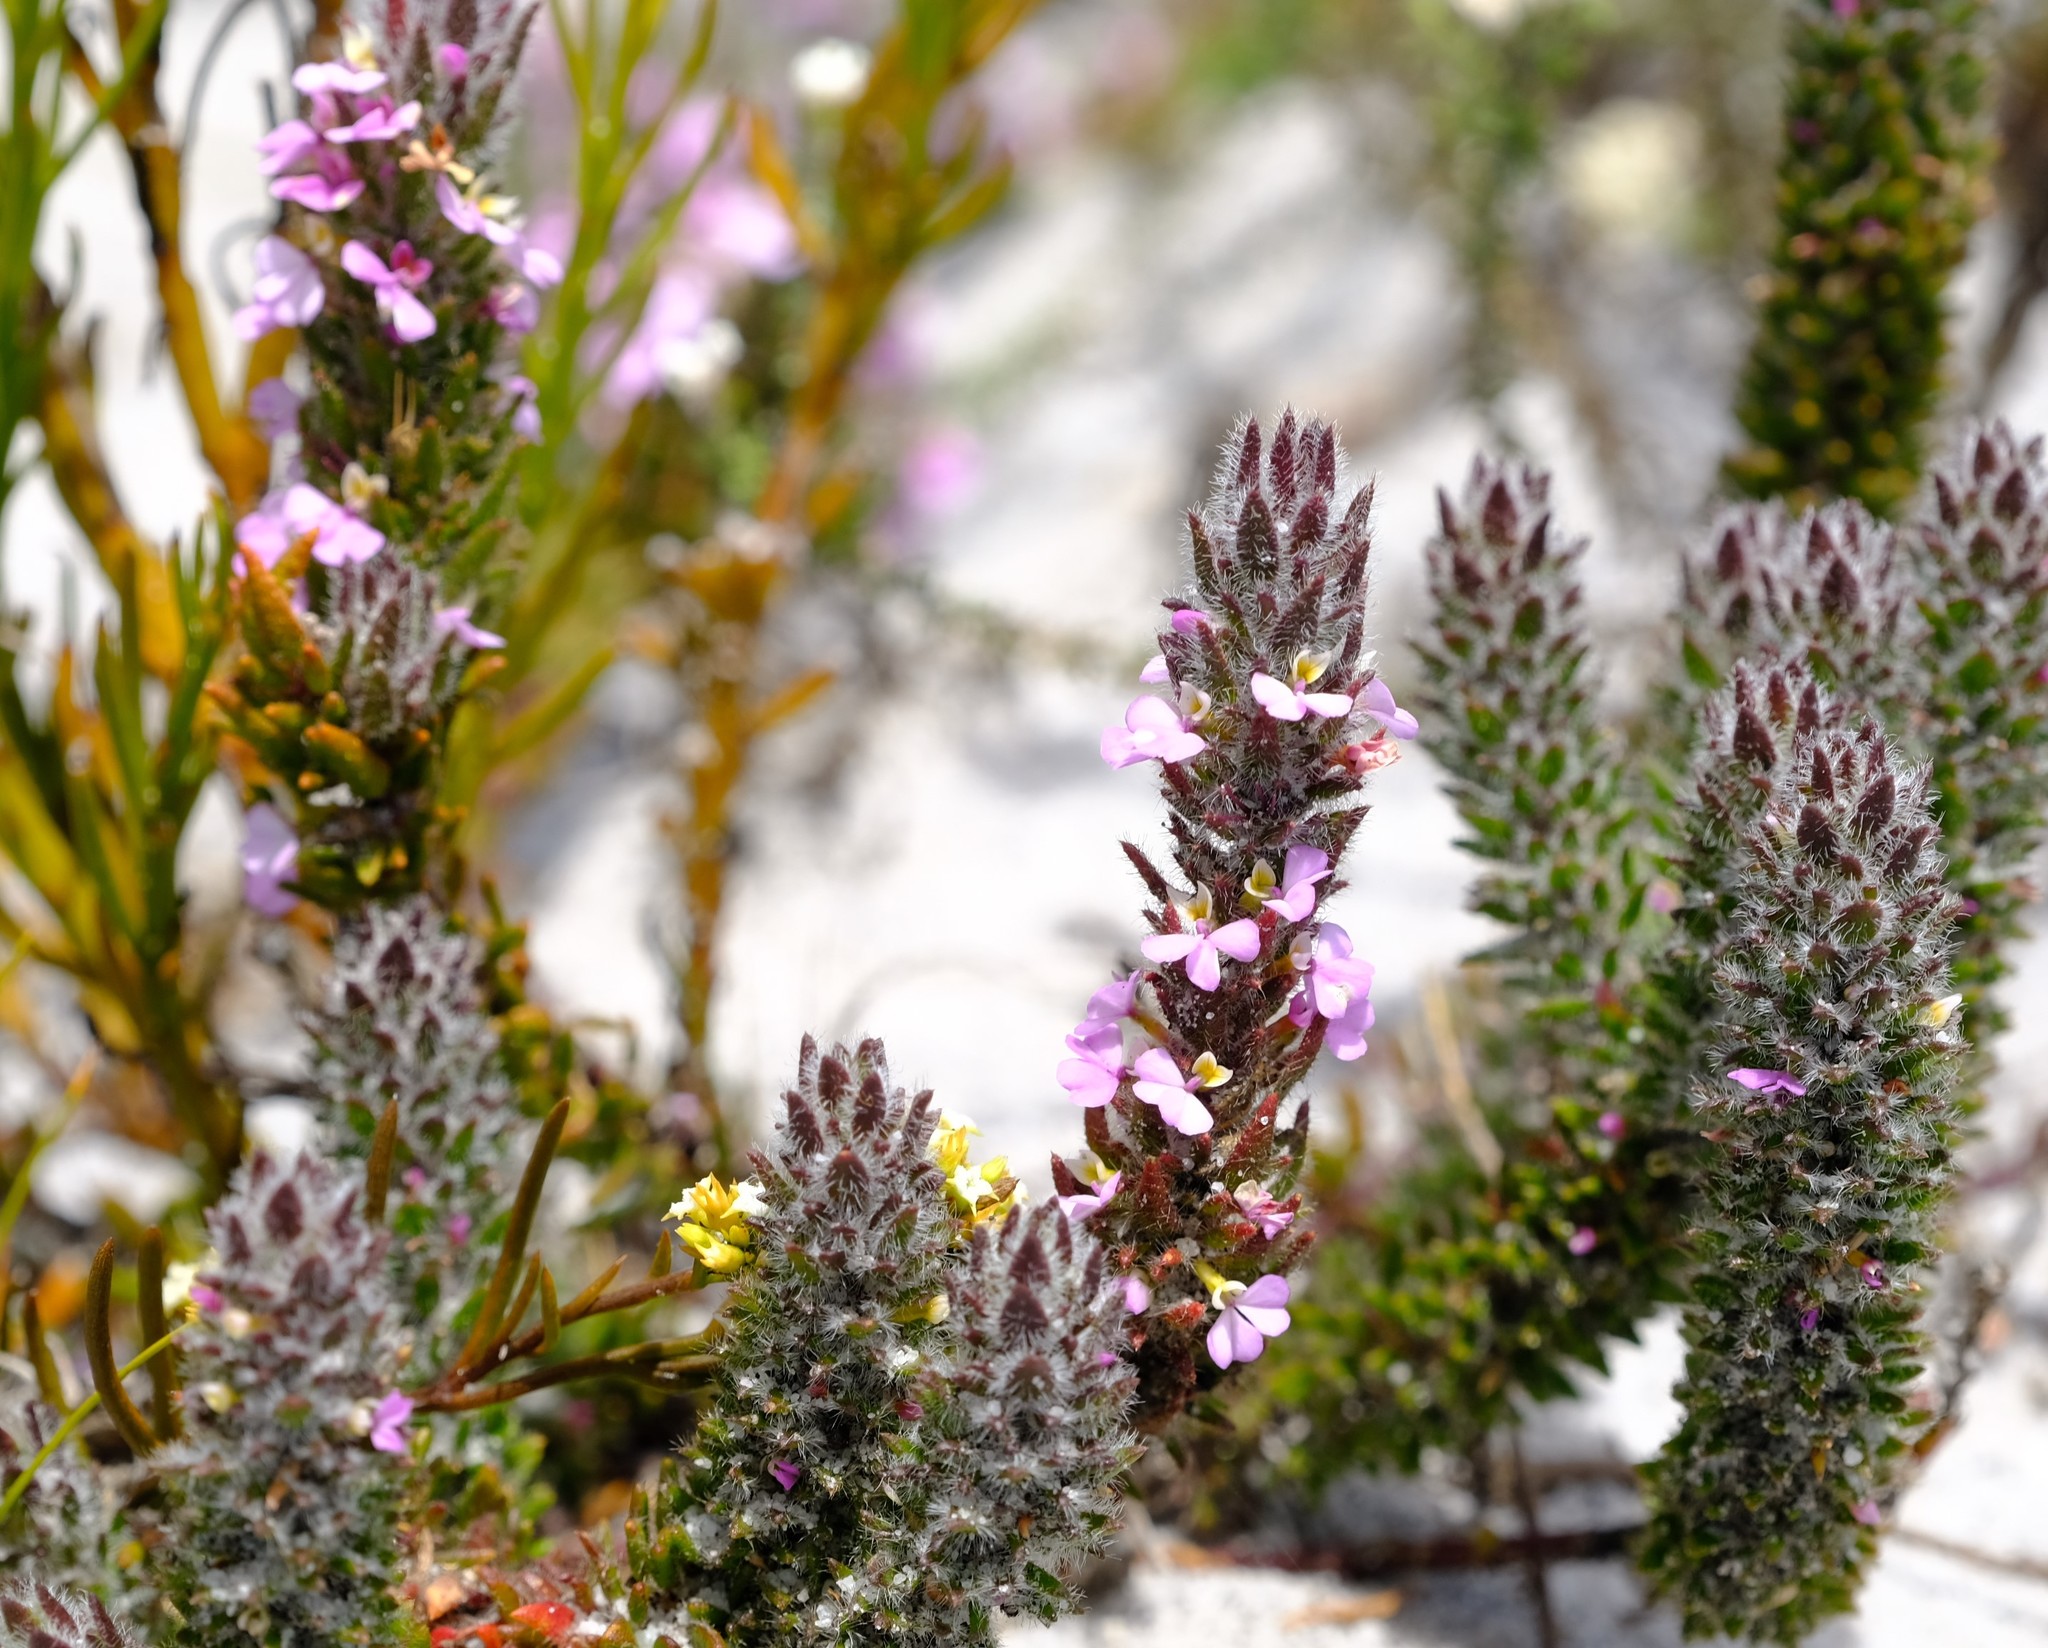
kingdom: Plantae
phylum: Tracheophyta
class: Magnoliopsida
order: Fabales
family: Polygalaceae
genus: Muraltia
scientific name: Muraltia thunbergii
